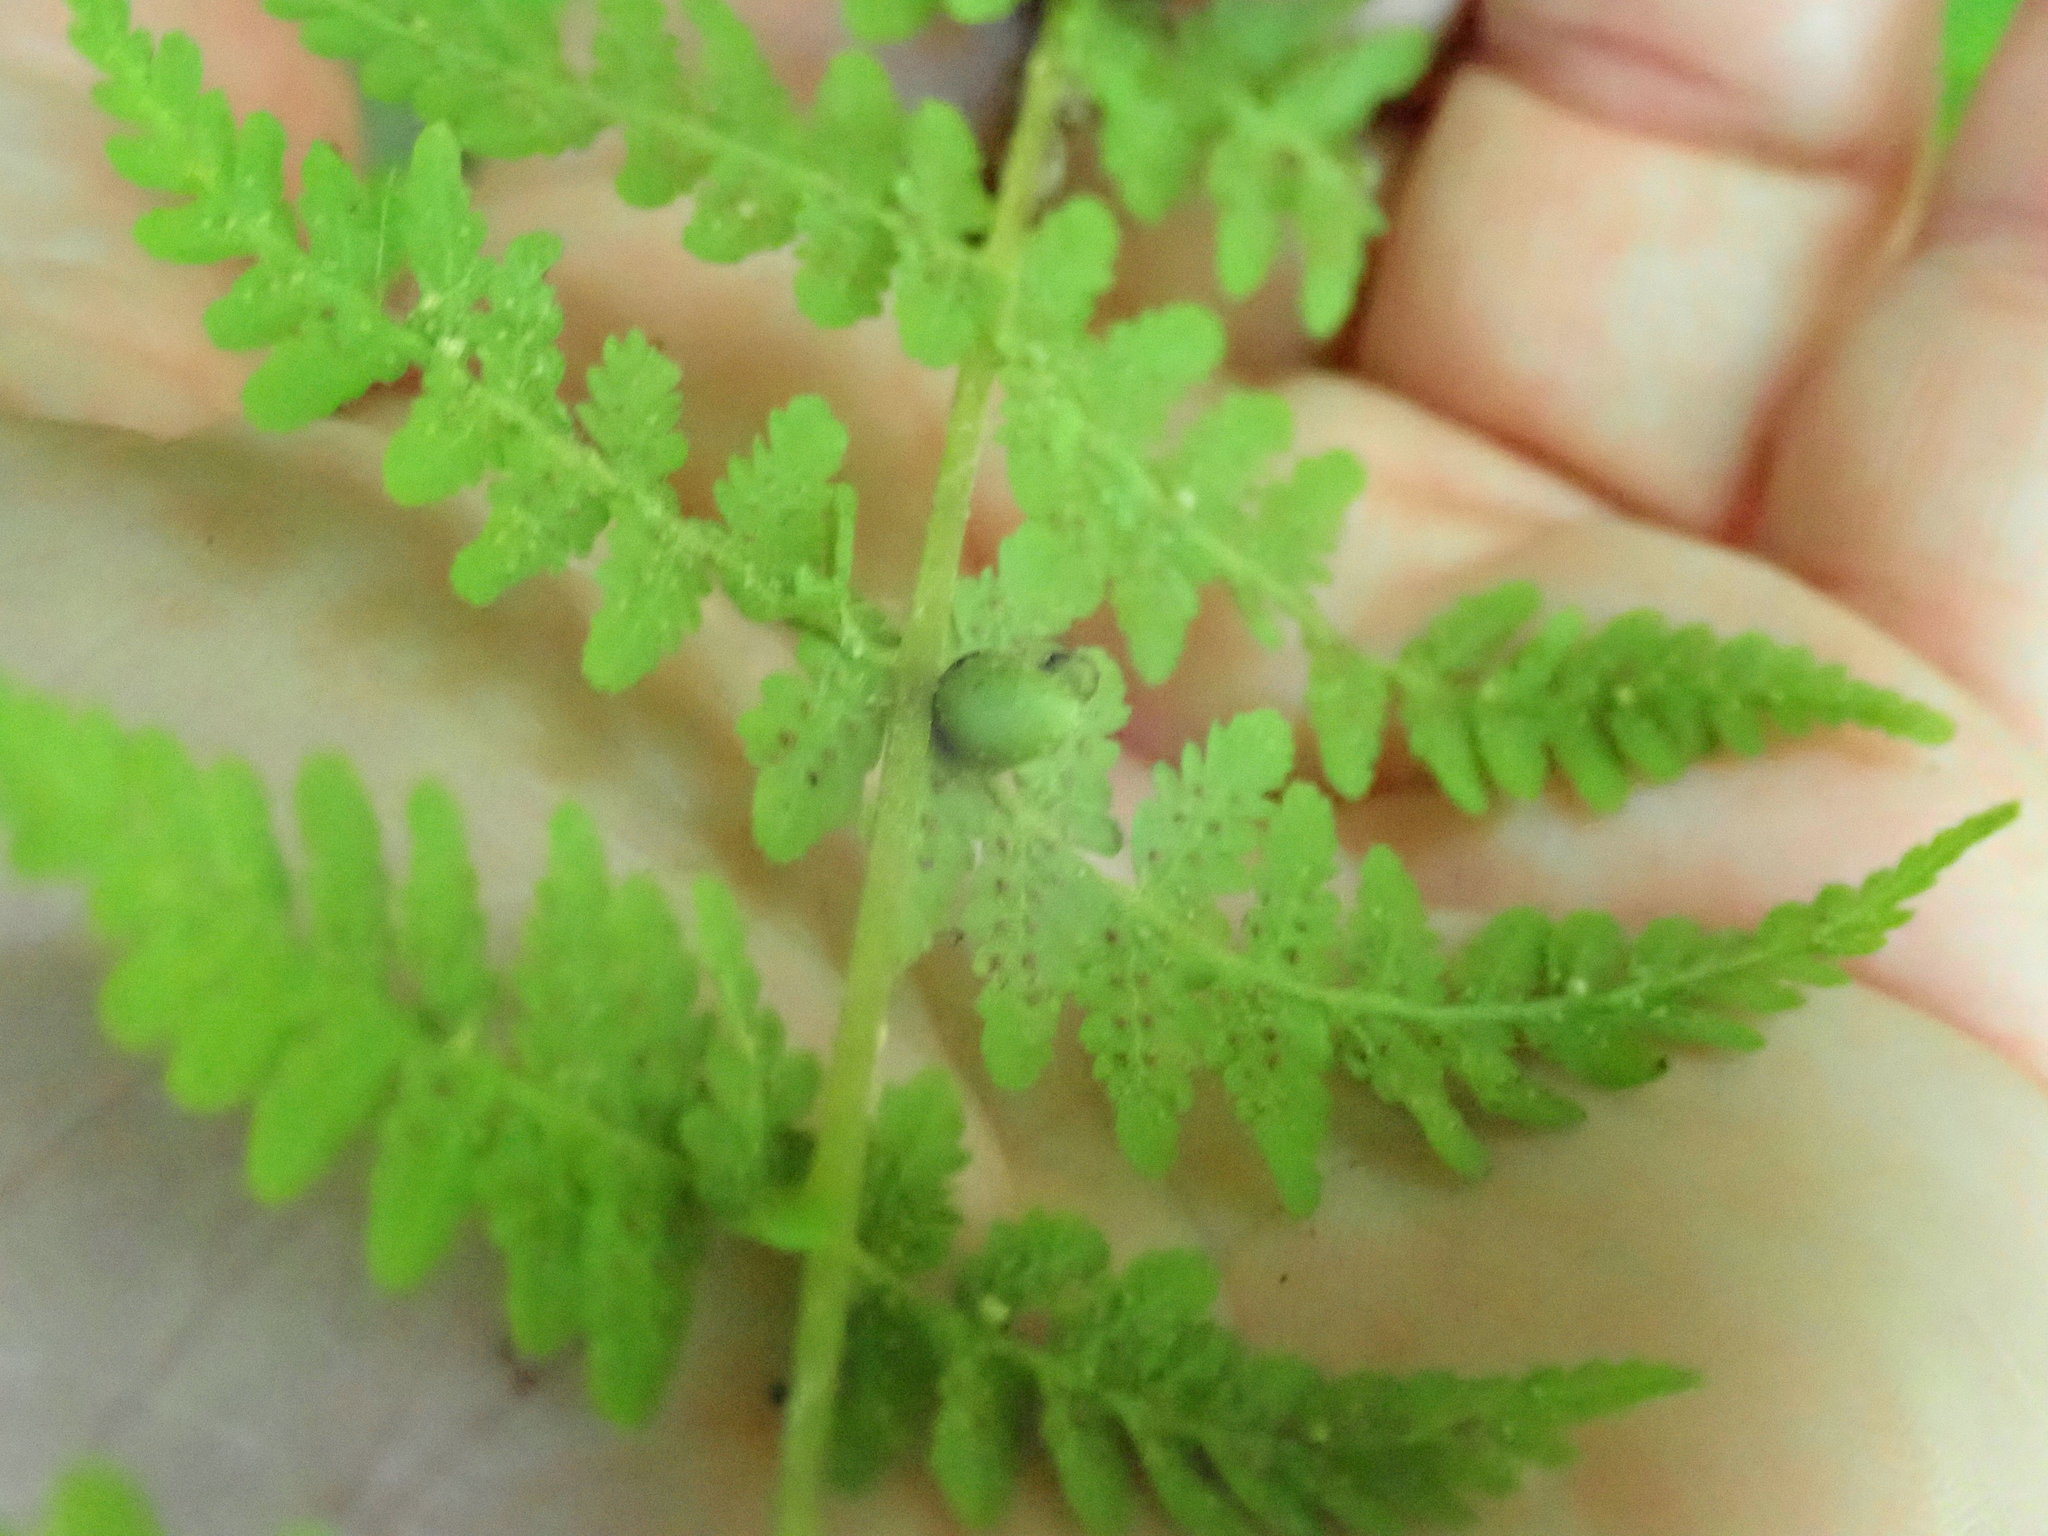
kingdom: Plantae
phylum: Tracheophyta
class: Polypodiopsida
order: Polypodiales
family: Cystopteridaceae
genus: Cystopteris
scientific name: Cystopteris bulbifera
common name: Bulblet bladder fern
